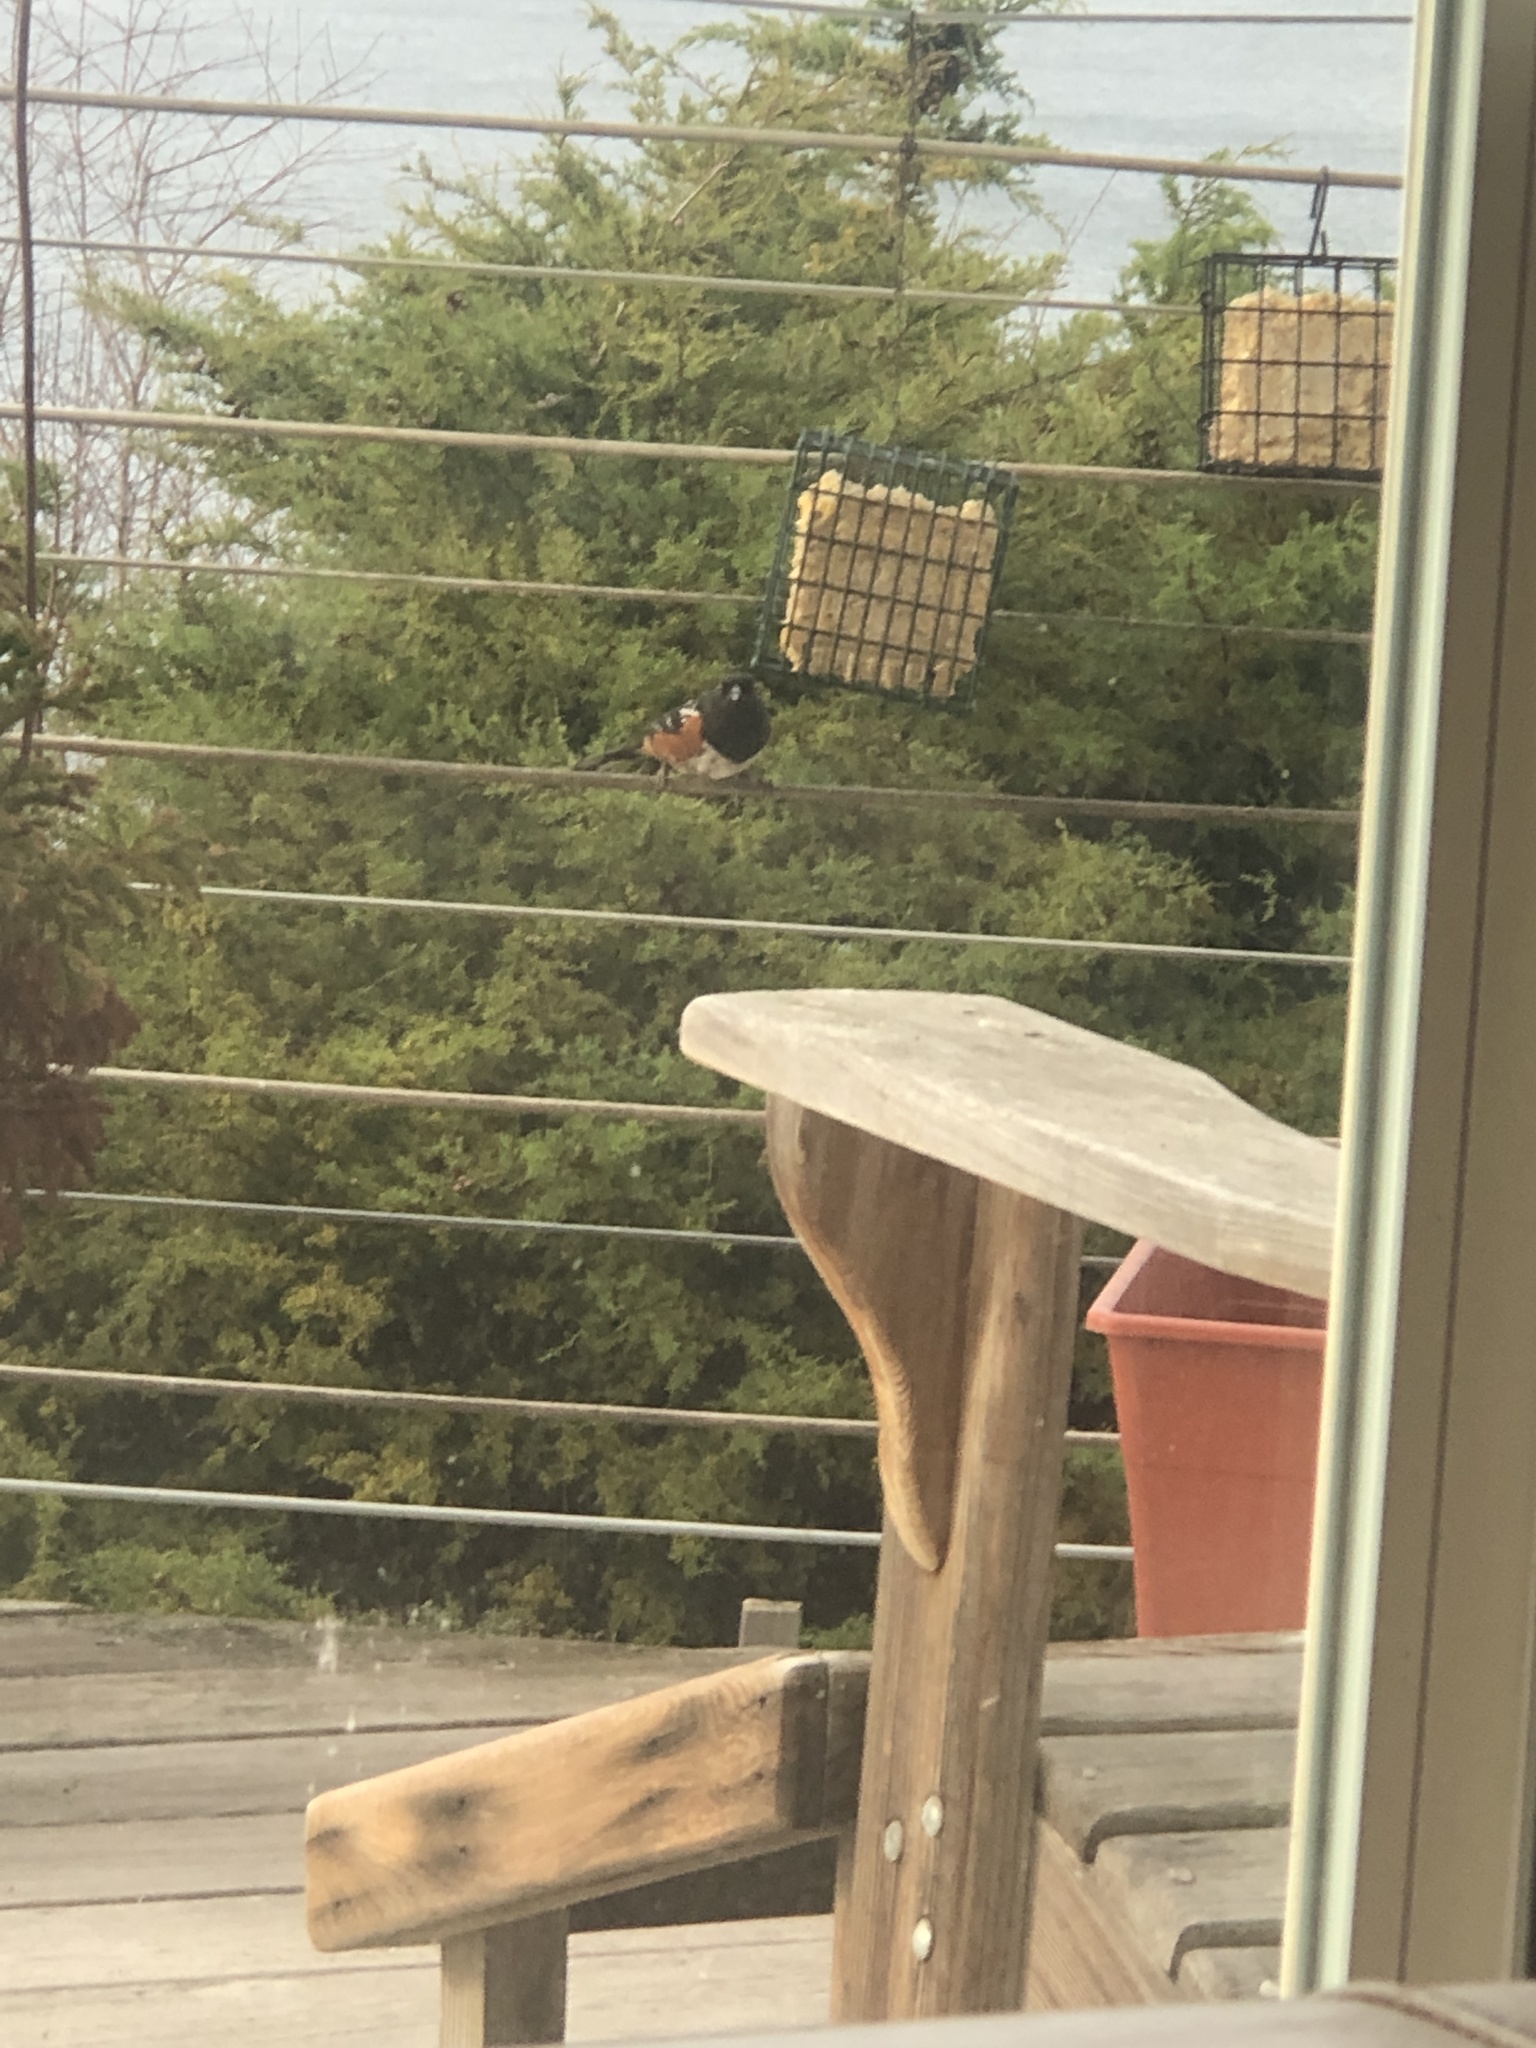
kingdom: Animalia
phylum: Chordata
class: Aves
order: Passeriformes
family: Passerellidae
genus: Pipilo
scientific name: Pipilo maculatus
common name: Spotted towhee
